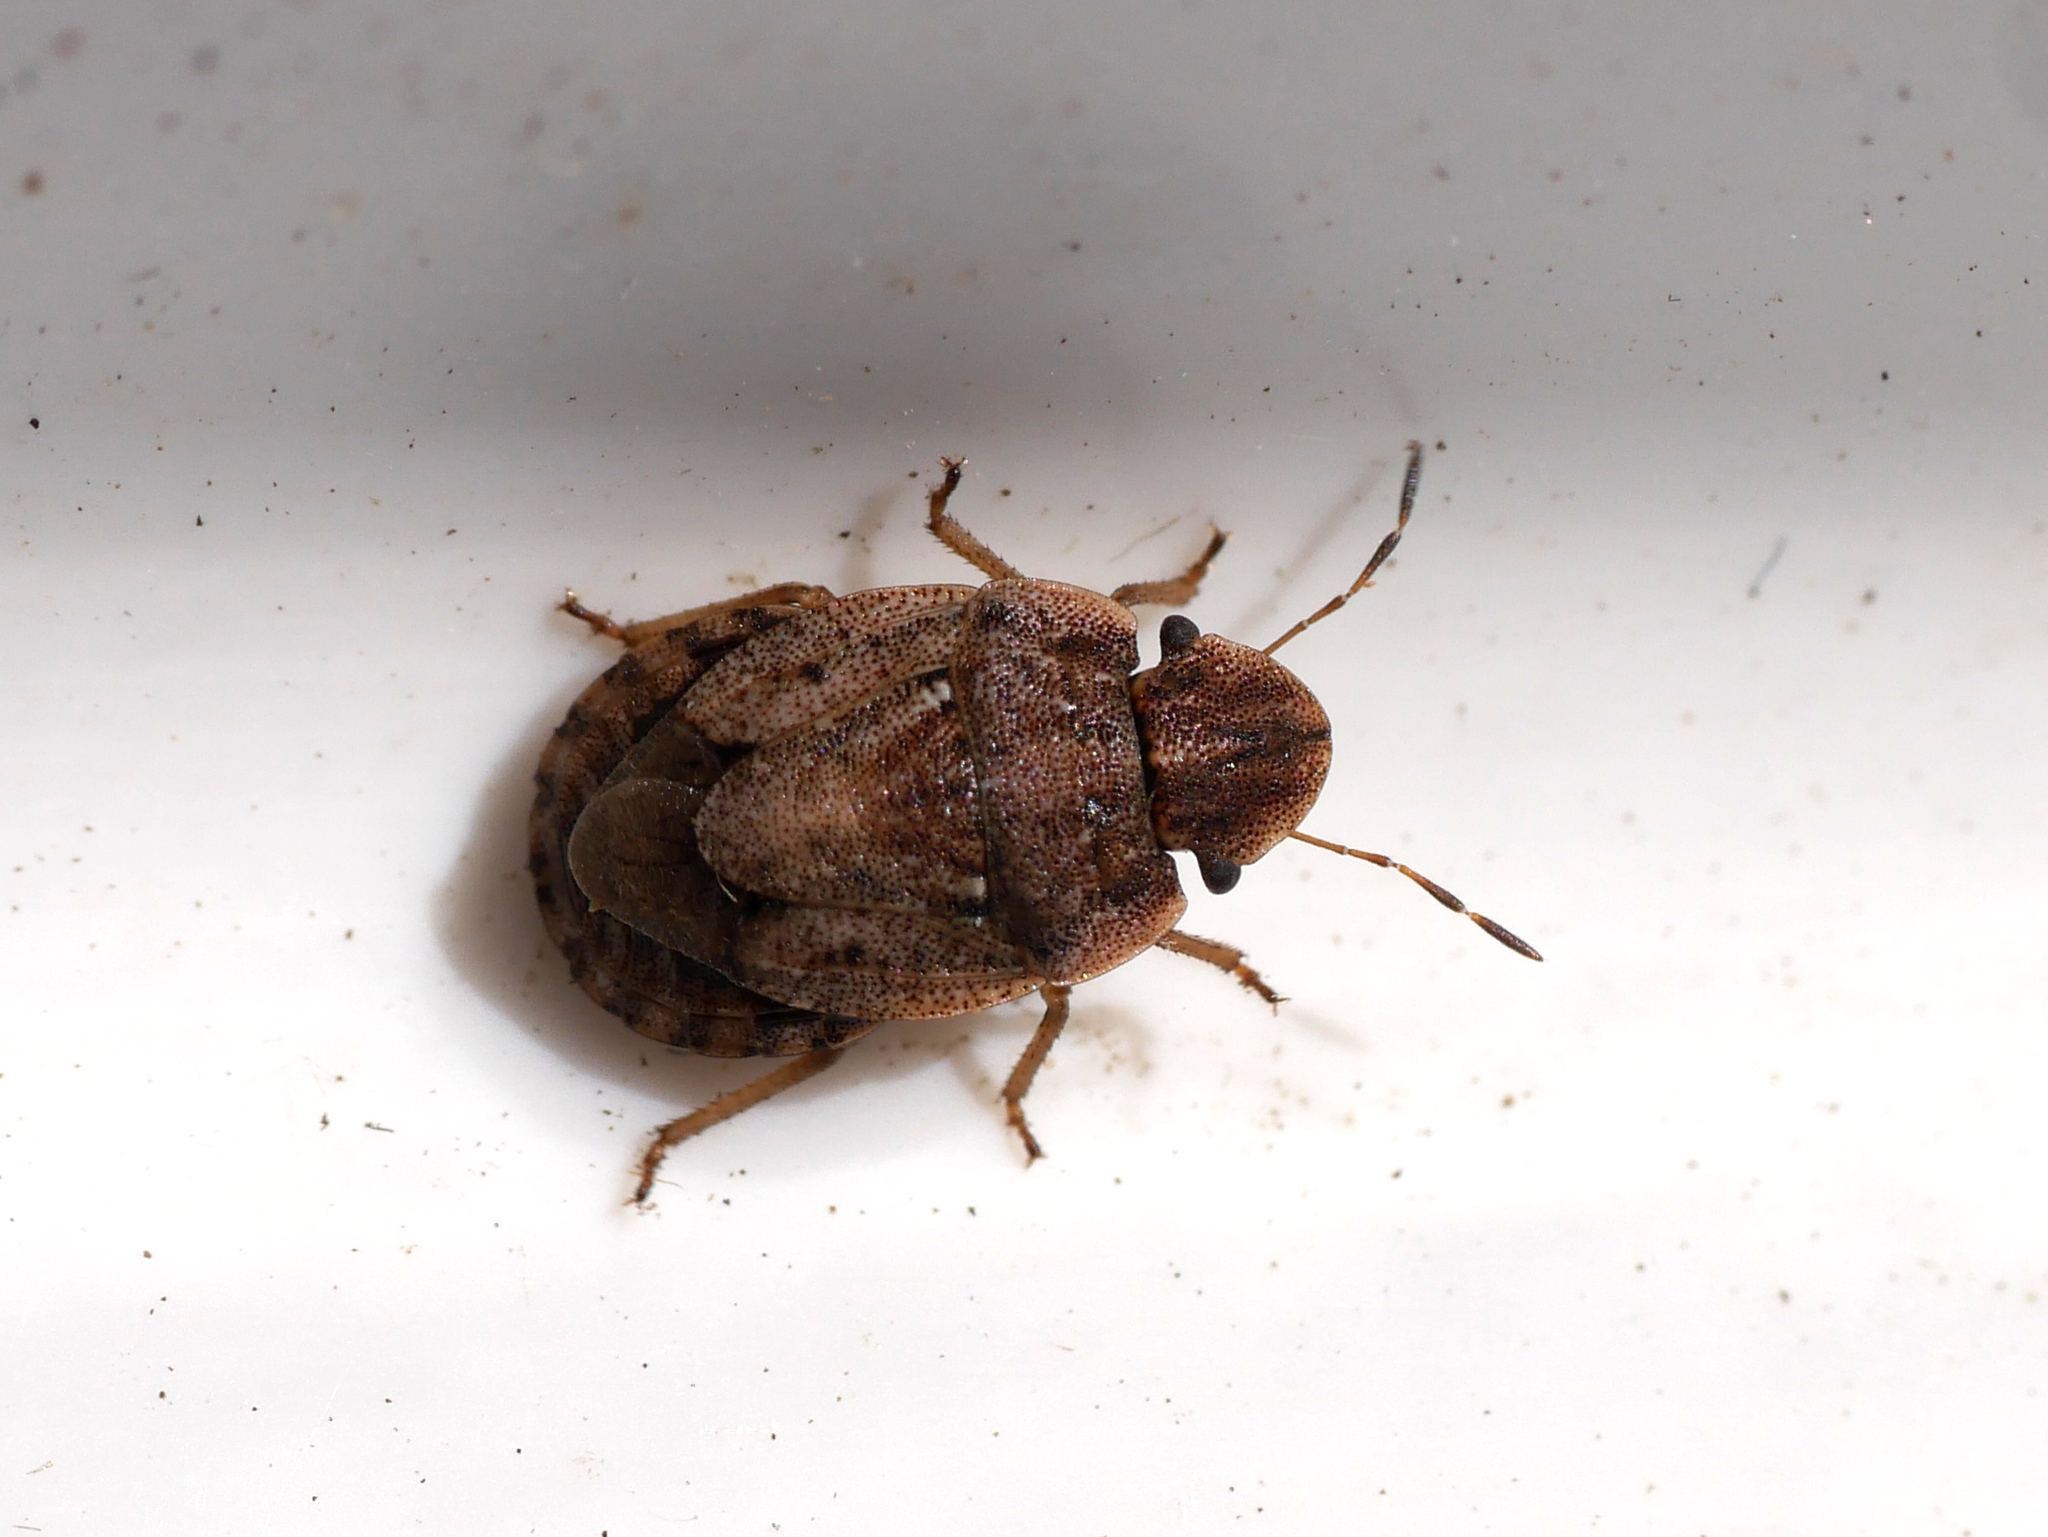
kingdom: Animalia
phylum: Arthropoda
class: Insecta
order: Hemiptera
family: Pentatomidae
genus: Sciocoris
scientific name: Sciocoris cursitans
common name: Sandrunner
